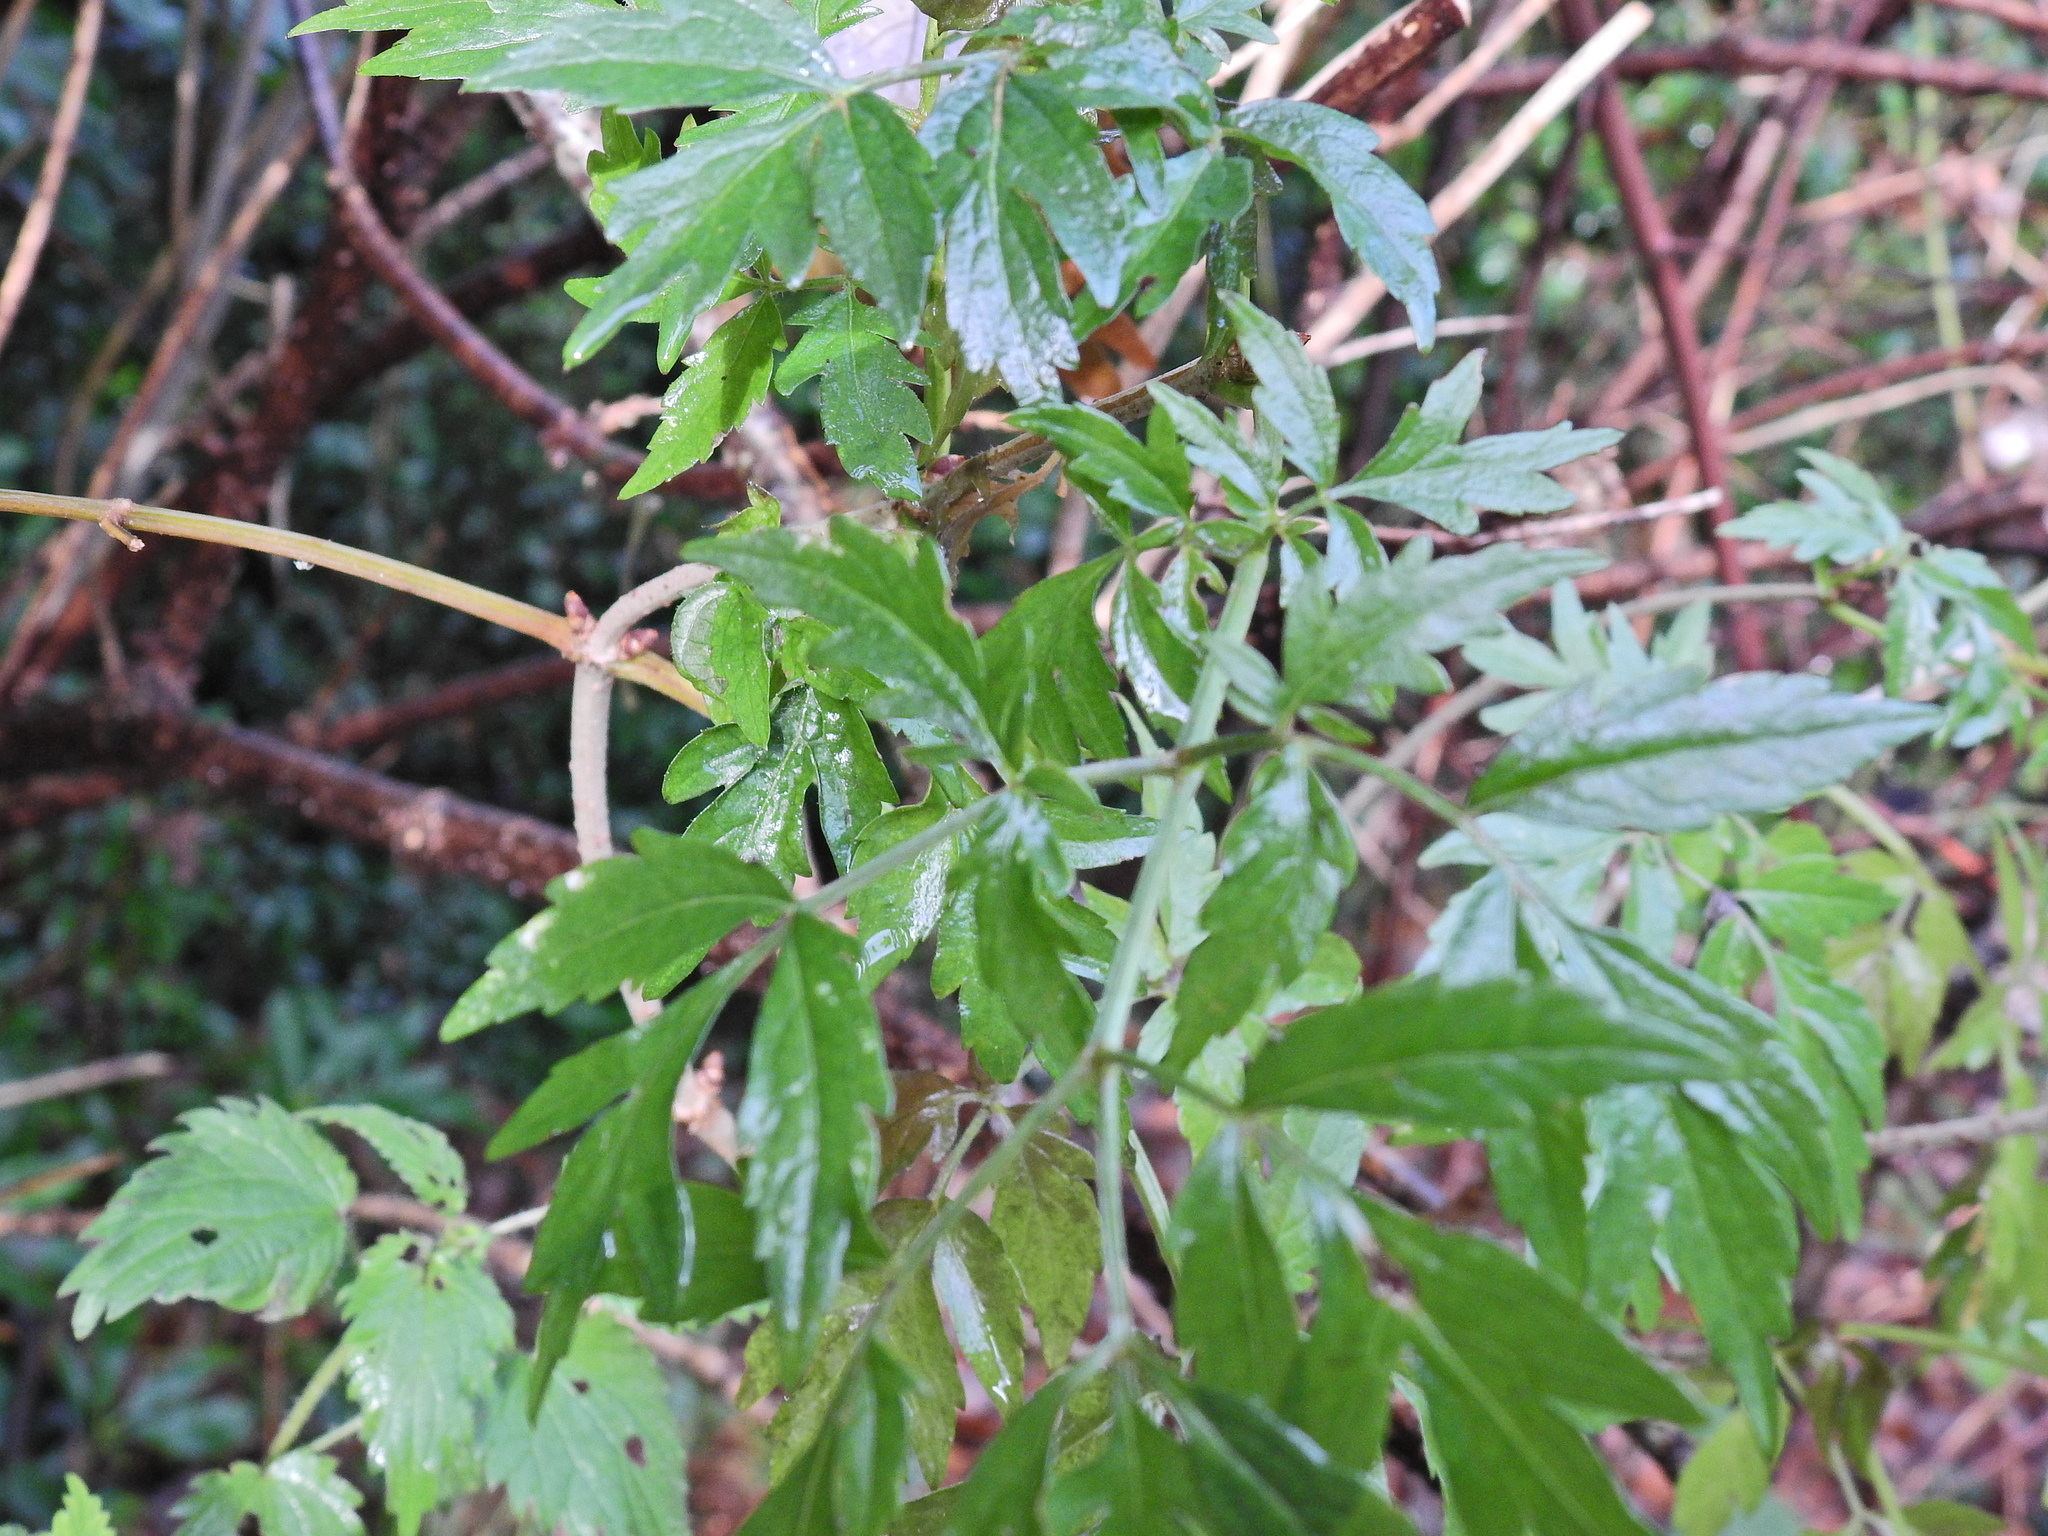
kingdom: Plantae
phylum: Tracheophyta
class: Magnoliopsida
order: Dipsacales
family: Viburnaceae
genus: Sambucus
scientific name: Sambucus nigra
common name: Elder
